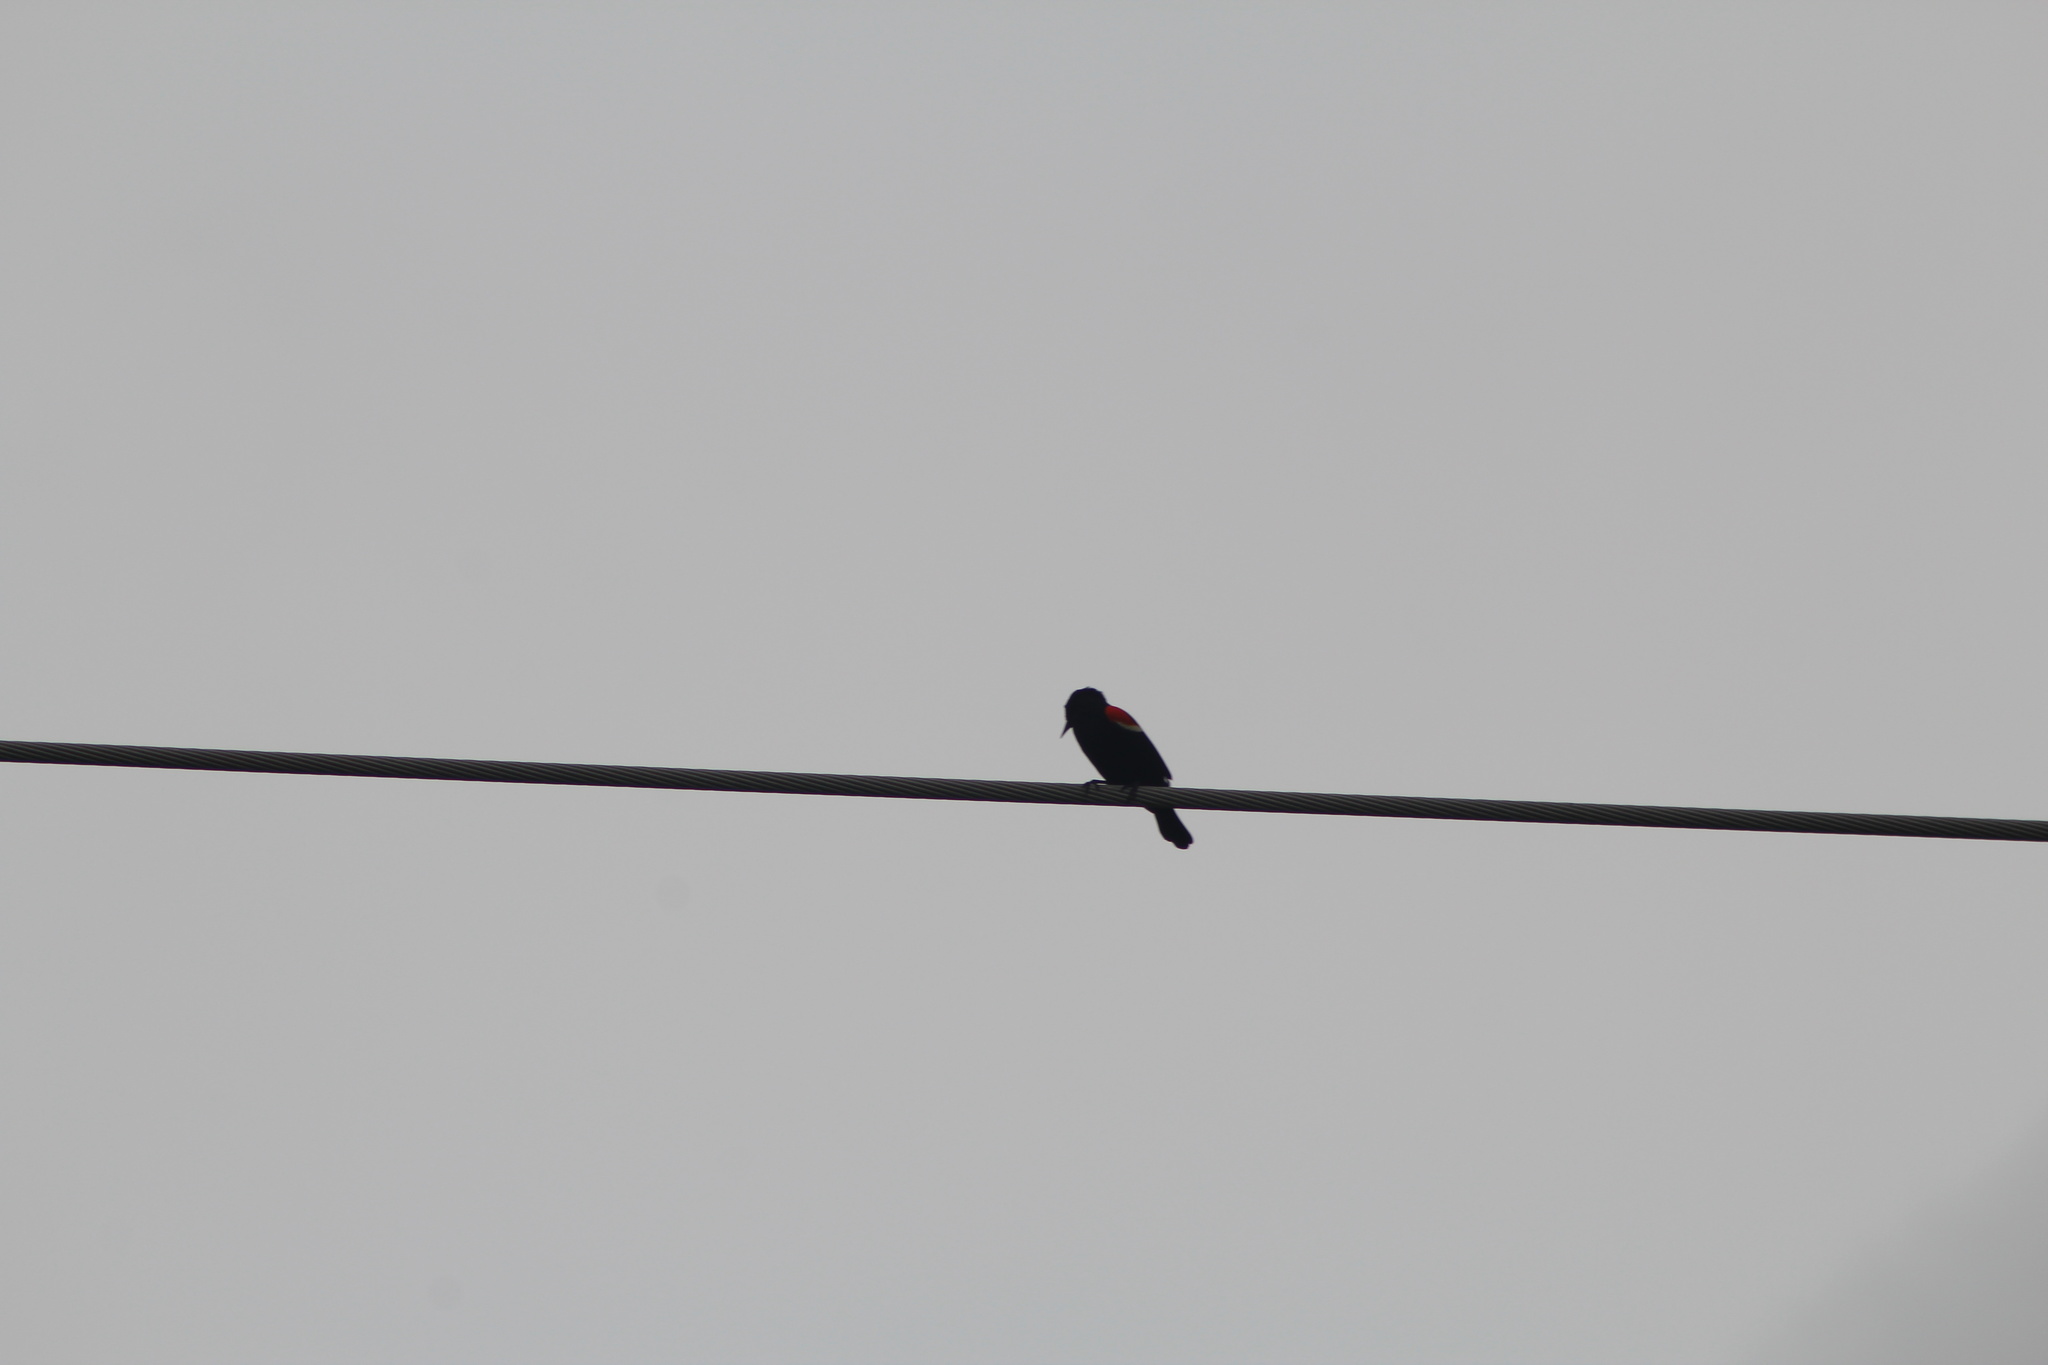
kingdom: Animalia
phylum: Chordata
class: Aves
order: Passeriformes
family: Icteridae
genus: Agelaius
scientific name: Agelaius phoeniceus
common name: Red-winged blackbird
